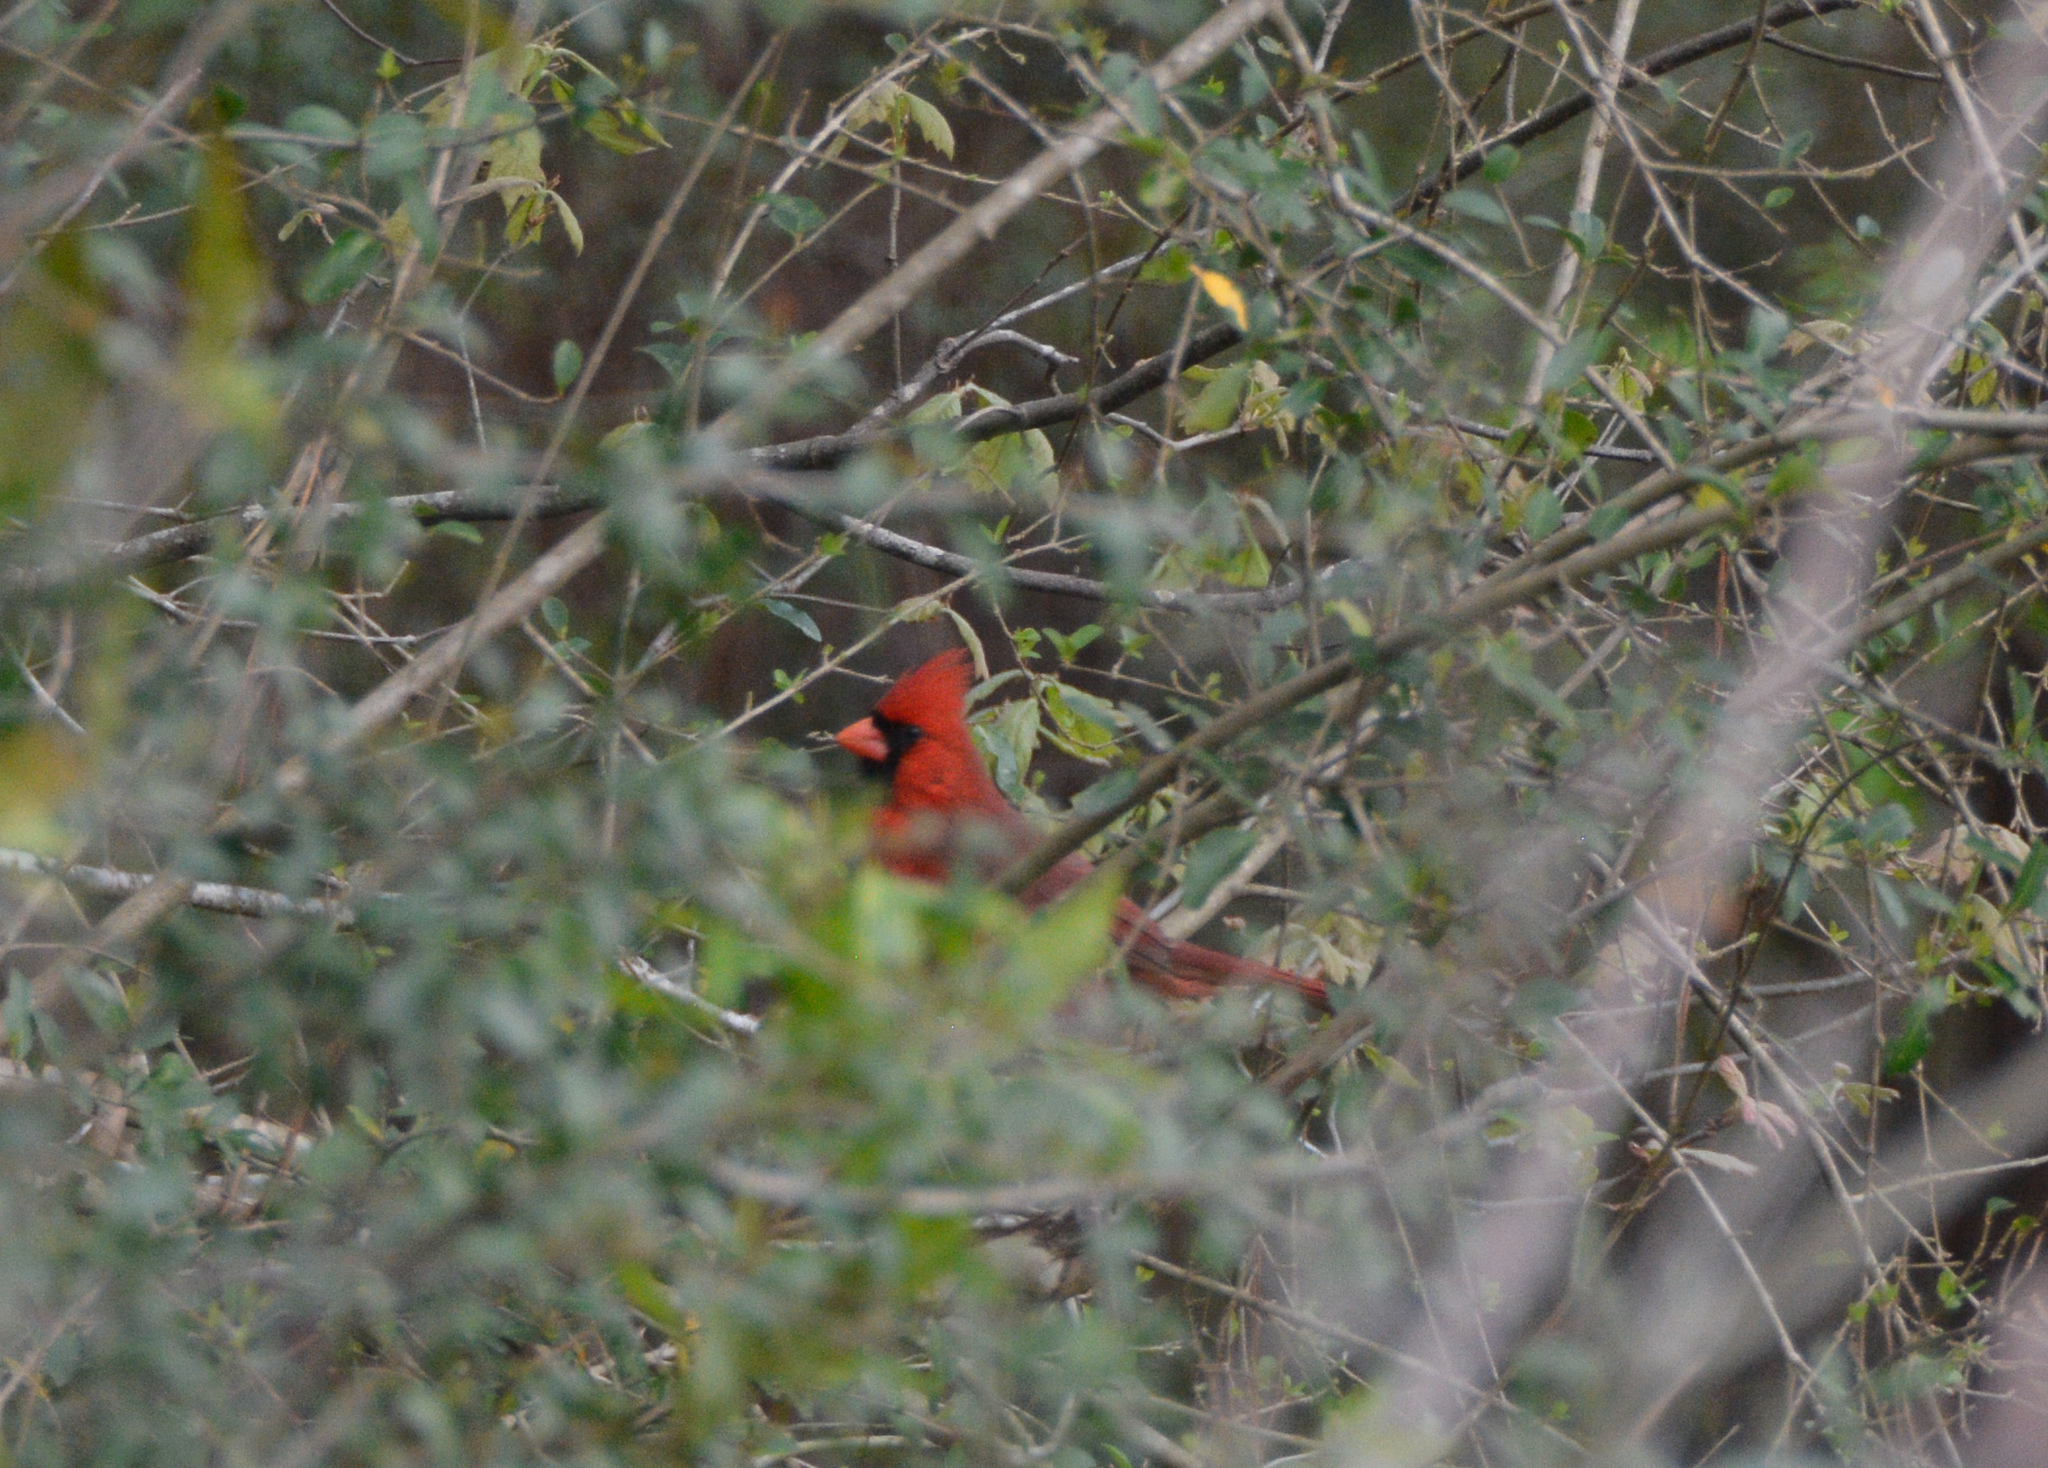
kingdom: Animalia
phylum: Chordata
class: Aves
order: Passeriformes
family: Cardinalidae
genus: Cardinalis
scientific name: Cardinalis cardinalis
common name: Northern cardinal
